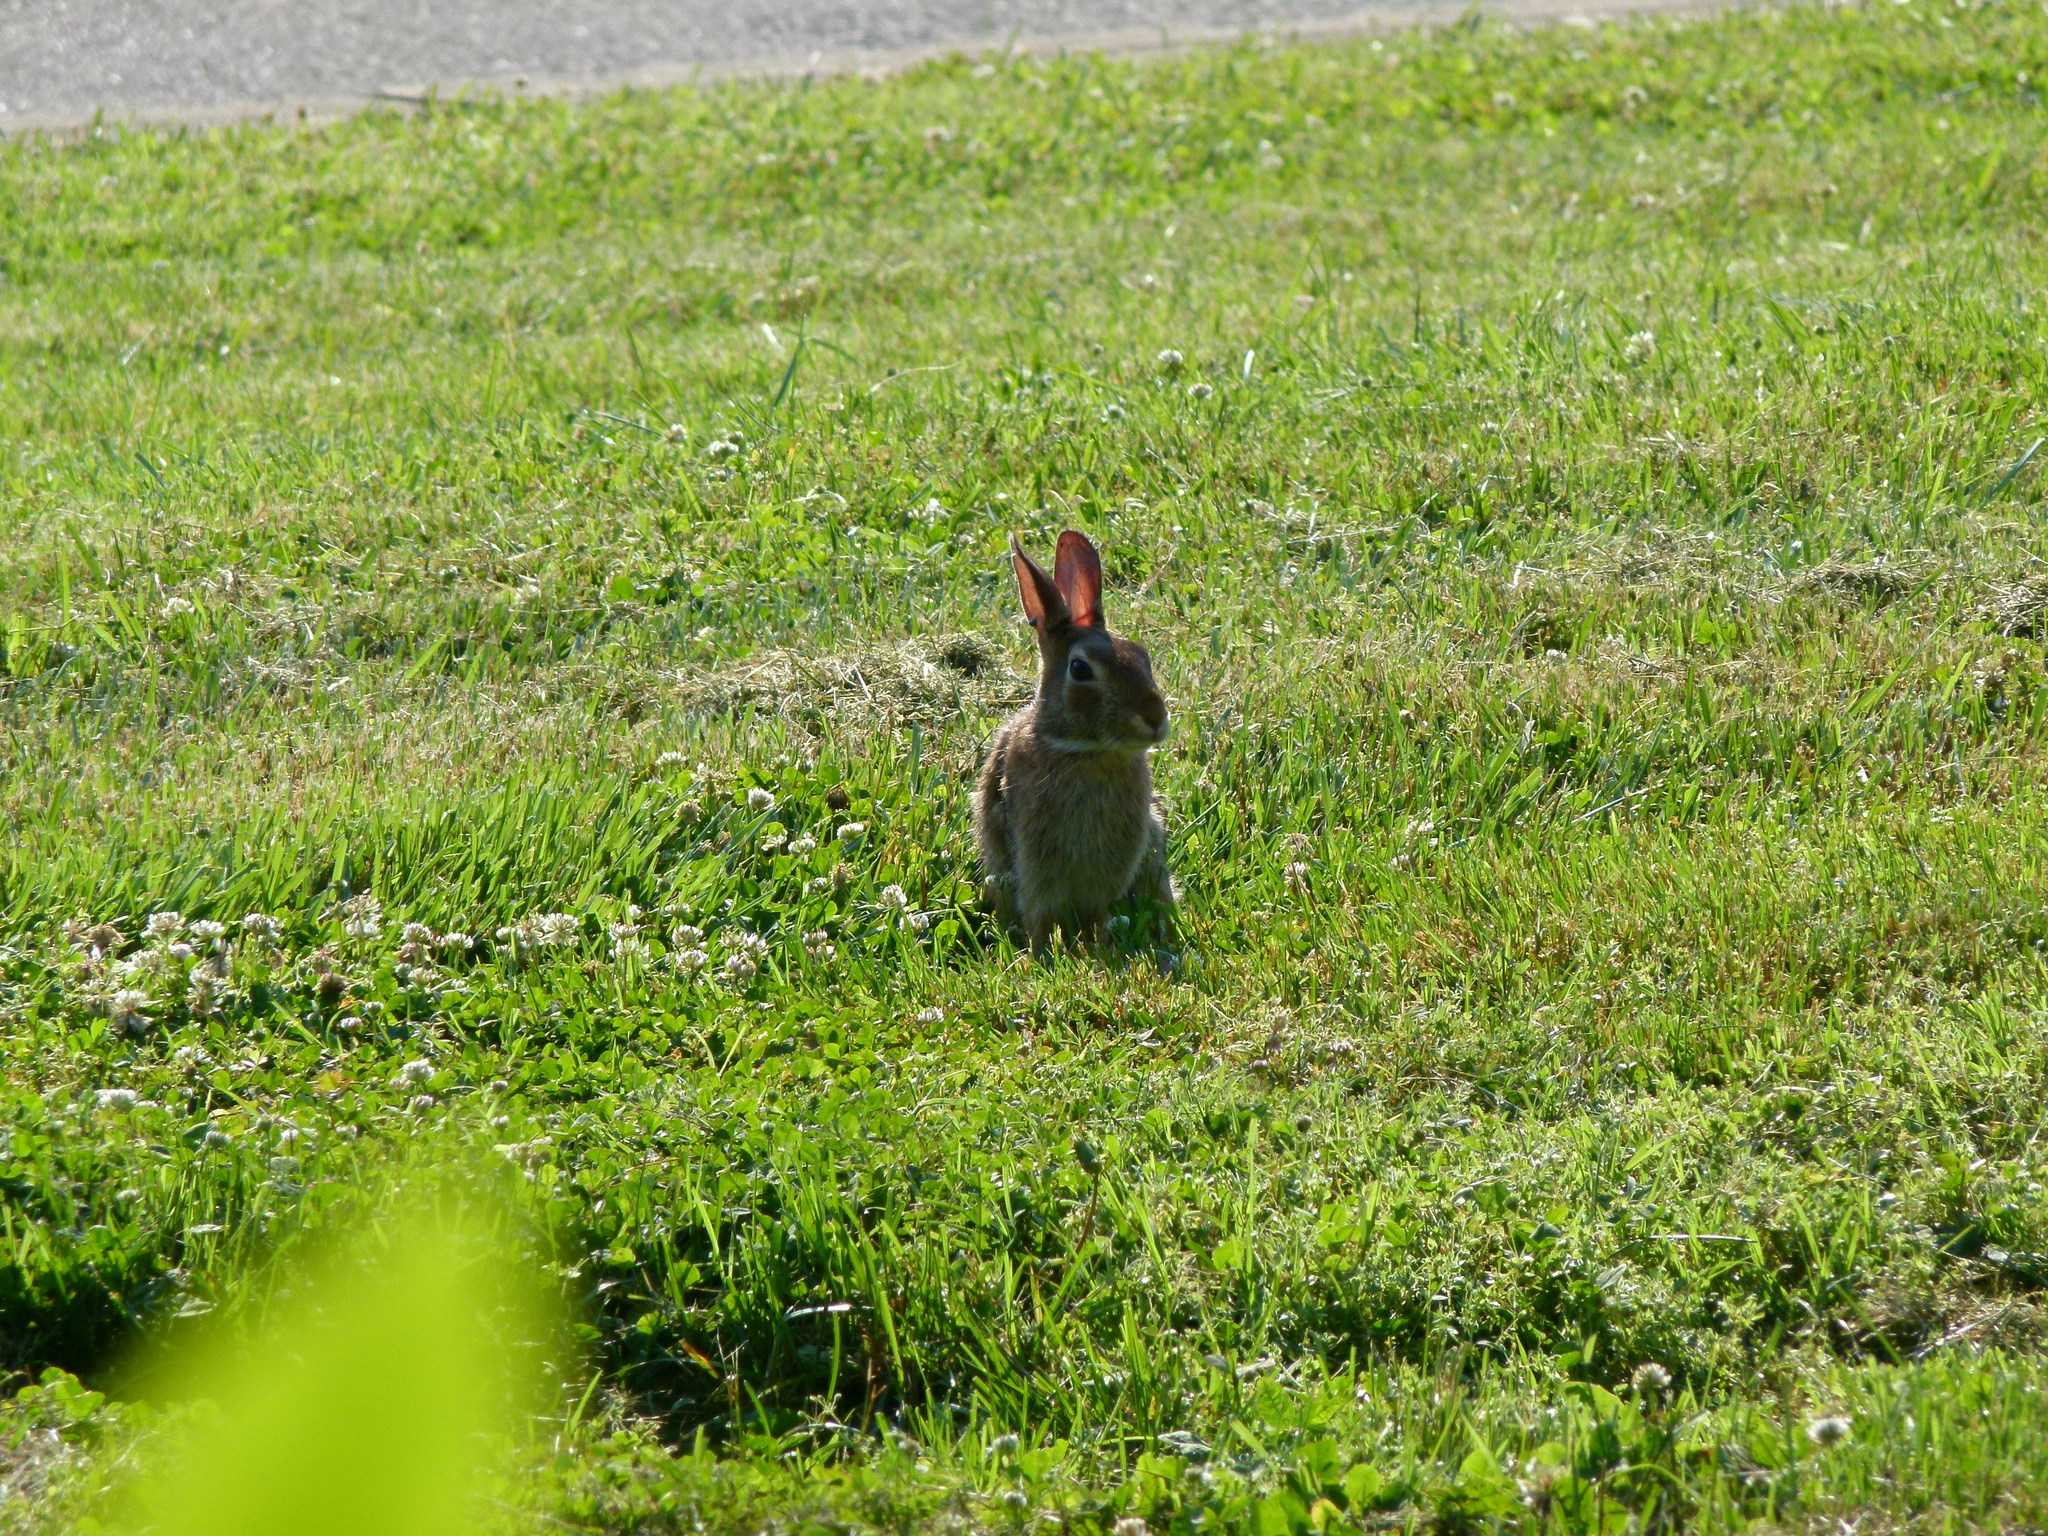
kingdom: Animalia
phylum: Chordata
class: Mammalia
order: Lagomorpha
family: Leporidae
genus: Sylvilagus
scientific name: Sylvilagus floridanus
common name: Eastern cottontail
